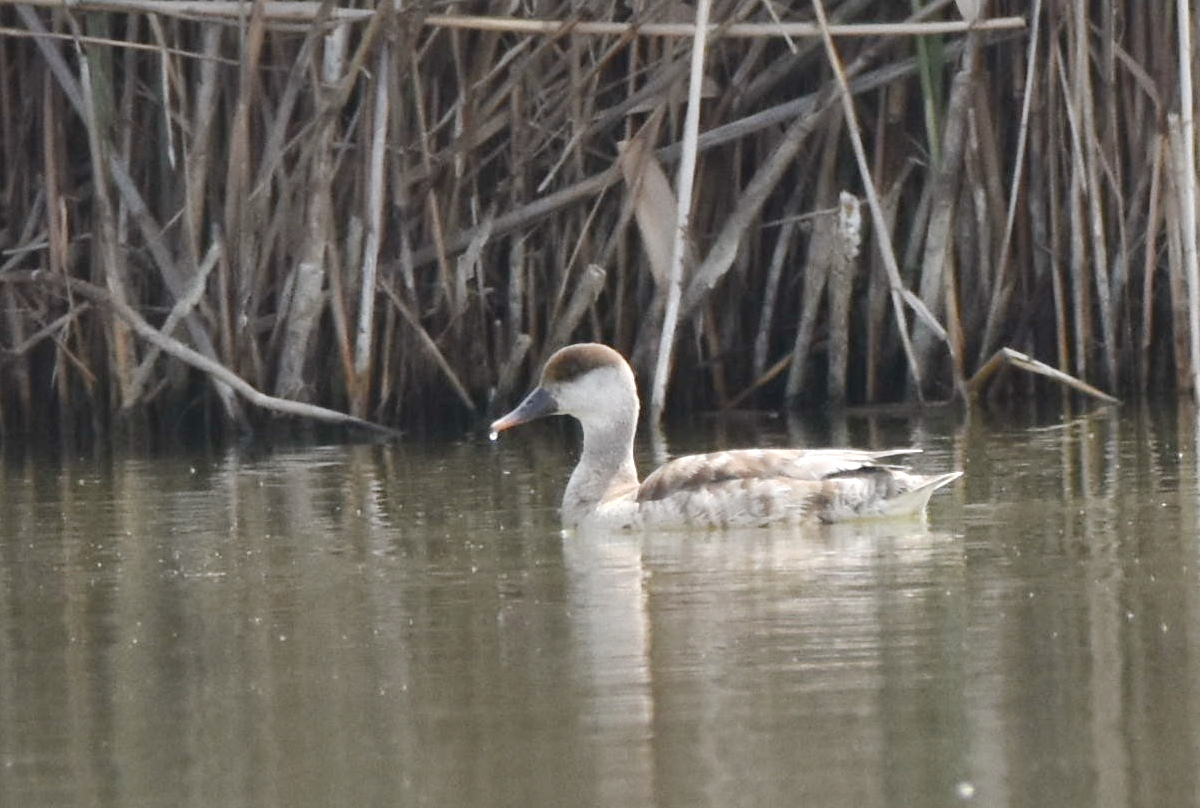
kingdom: Animalia
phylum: Chordata
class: Aves
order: Anseriformes
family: Anatidae
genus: Netta
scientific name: Netta rufina
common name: Red-crested pochard
